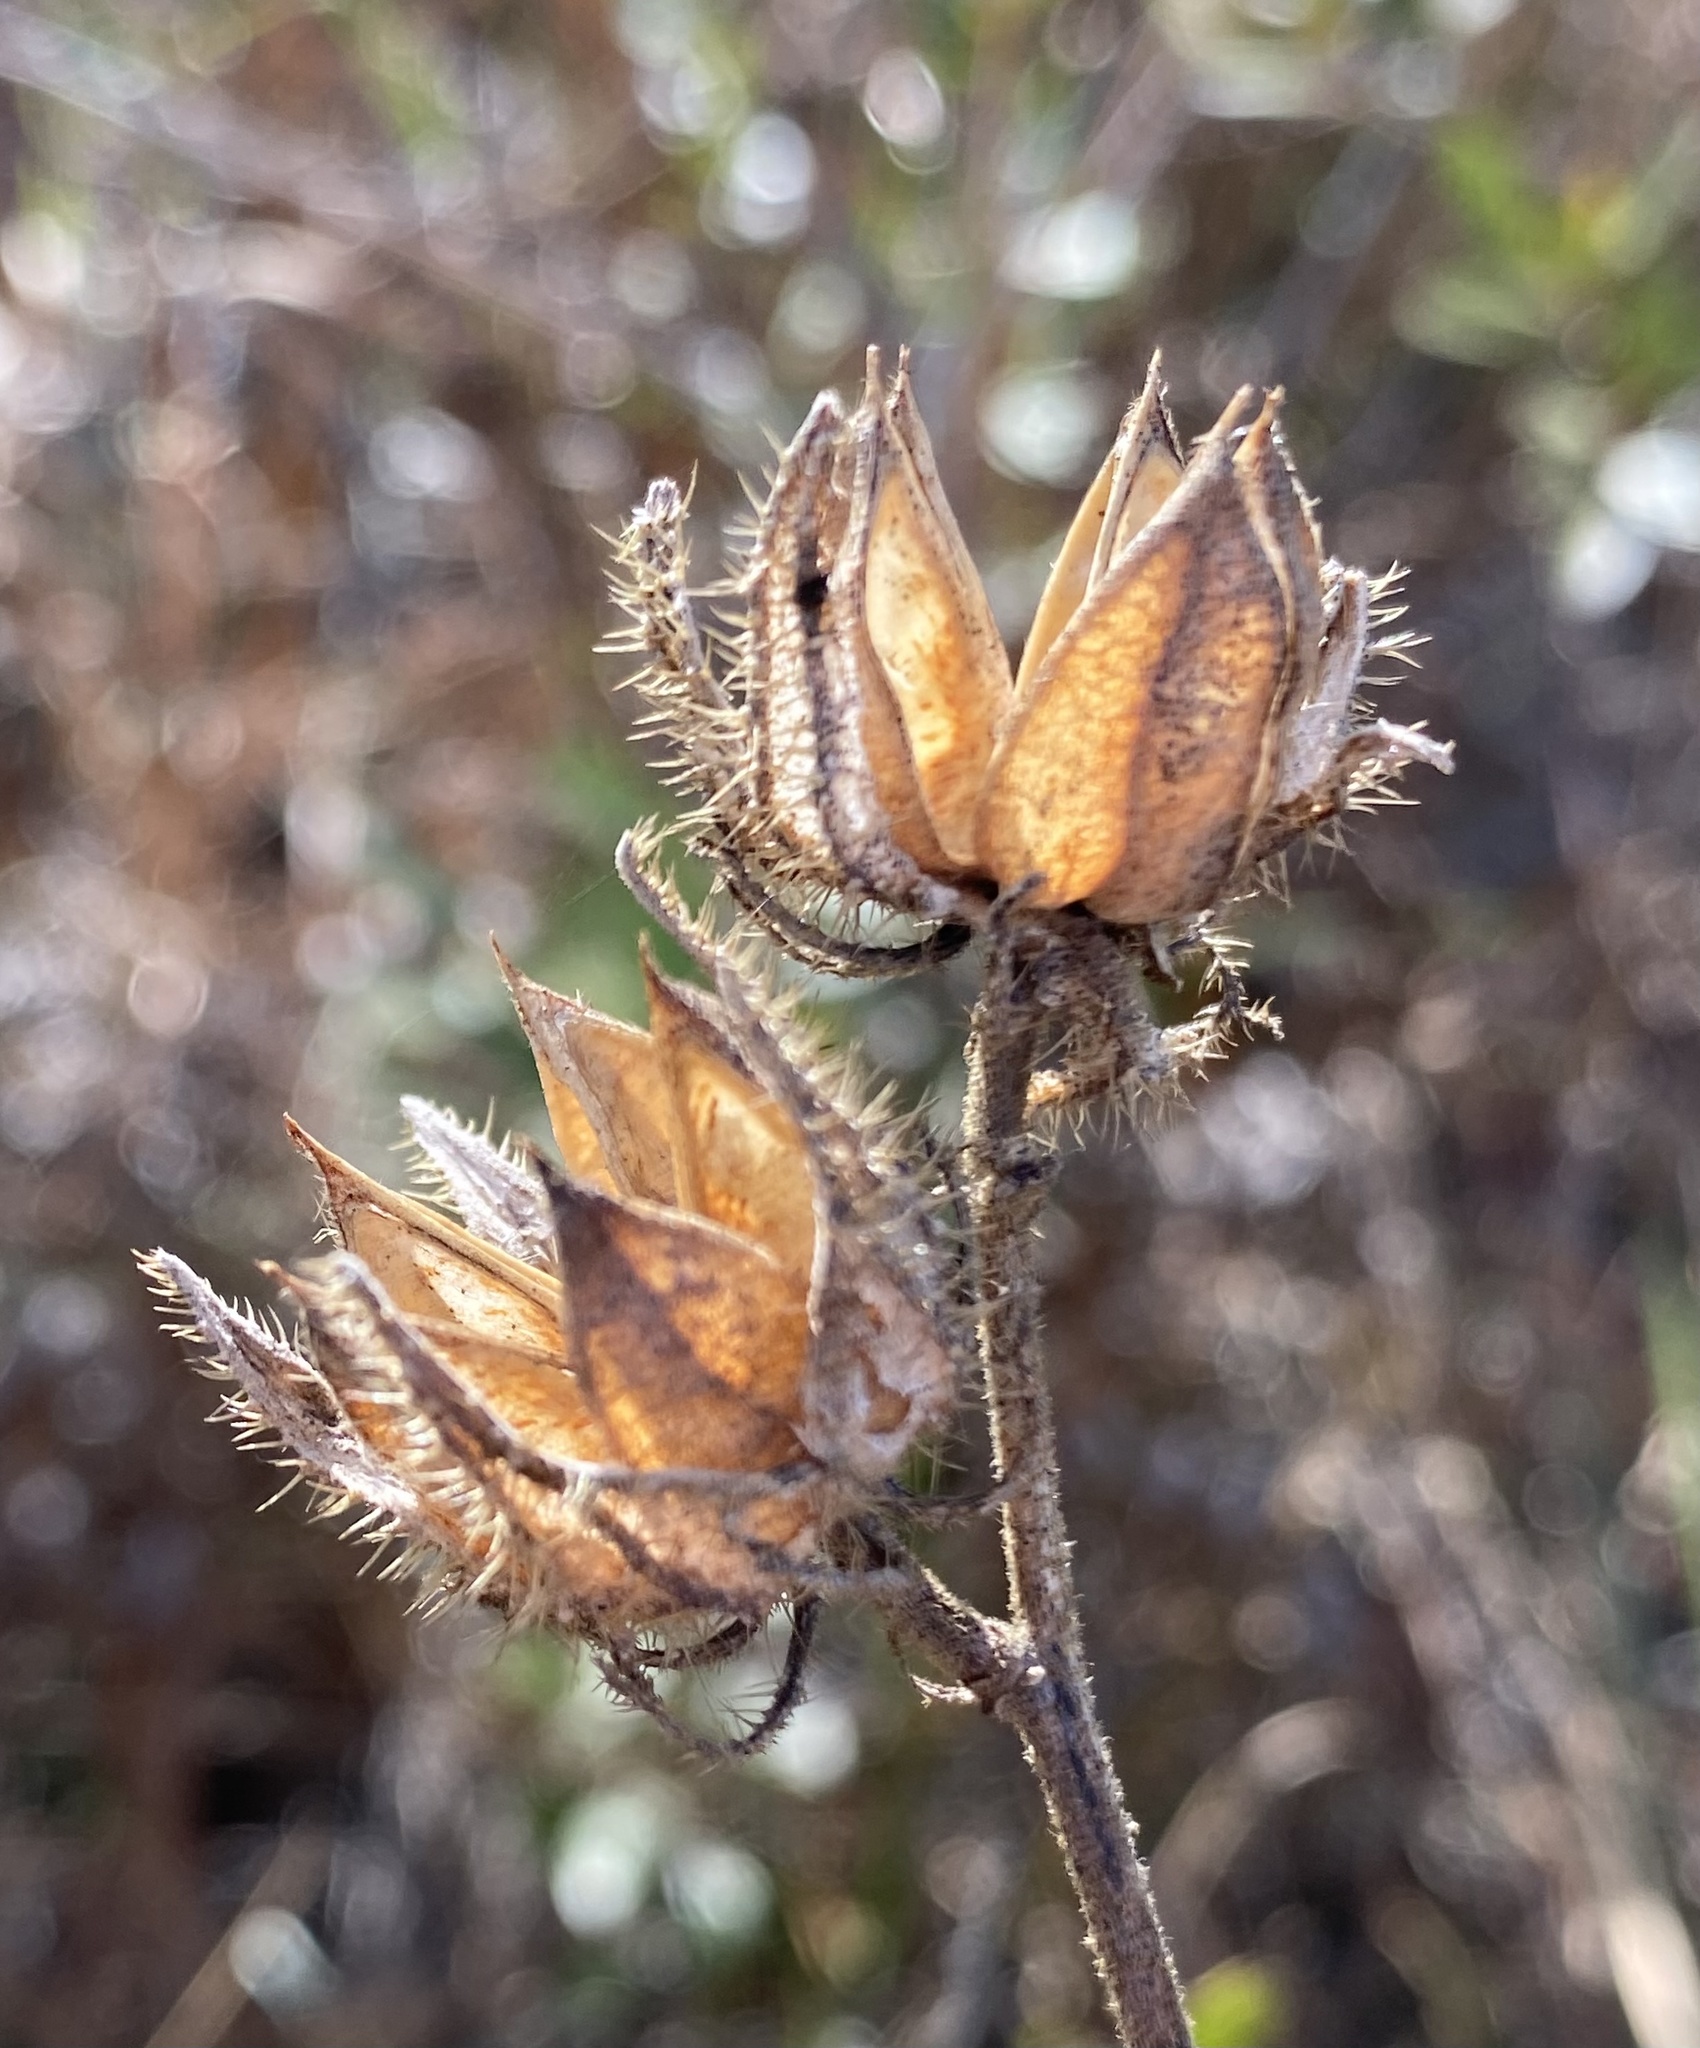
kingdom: Plantae
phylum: Tracheophyta
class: Magnoliopsida
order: Malvales
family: Malvaceae
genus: Hibiscus
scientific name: Hibiscus aculeatus
